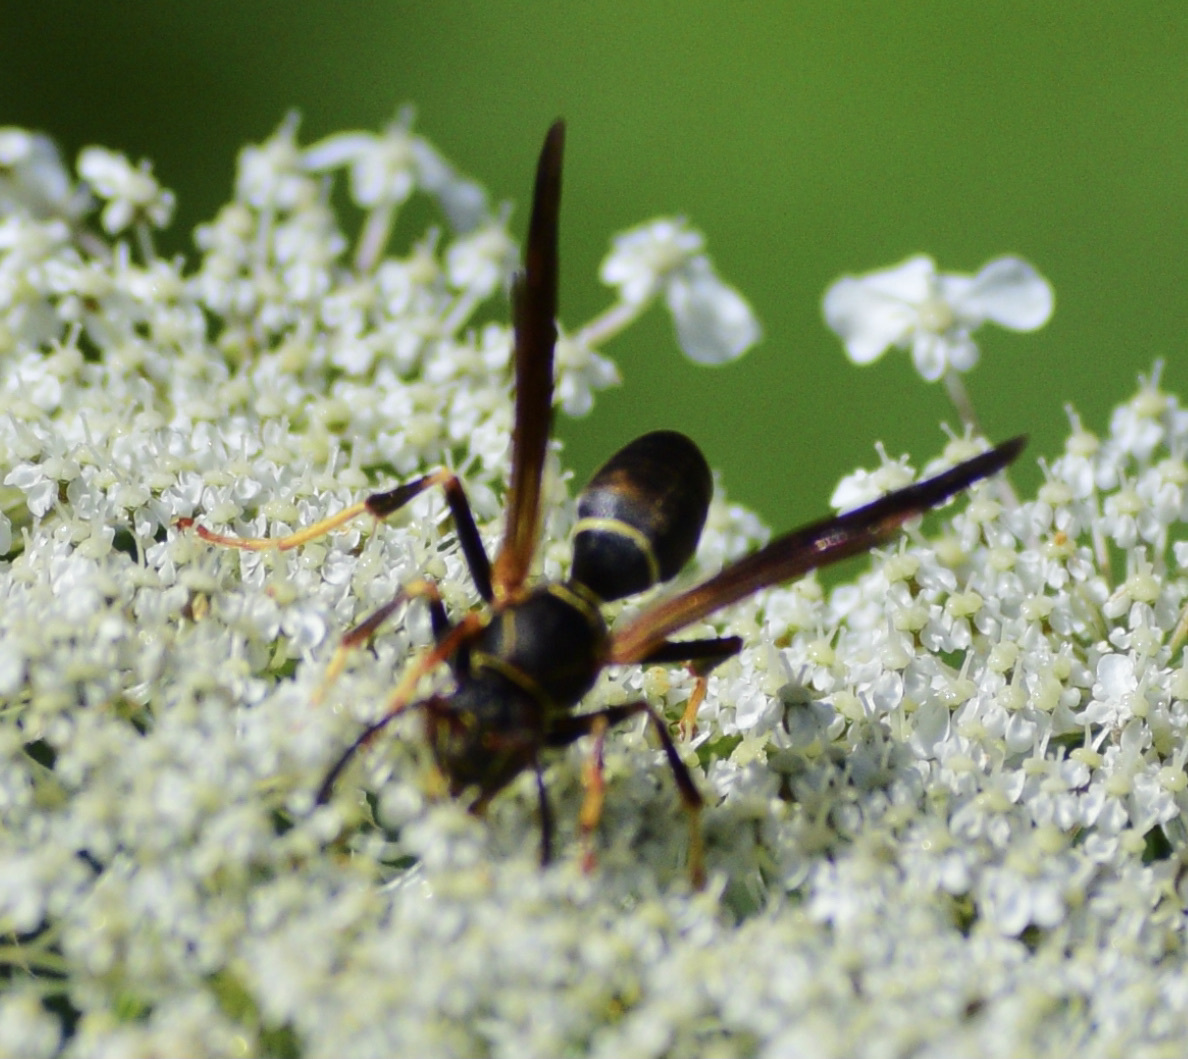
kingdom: Animalia
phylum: Arthropoda
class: Insecta
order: Hymenoptera
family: Eumenidae
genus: Polistes
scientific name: Polistes fuscatus
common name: Dark paper wasp
